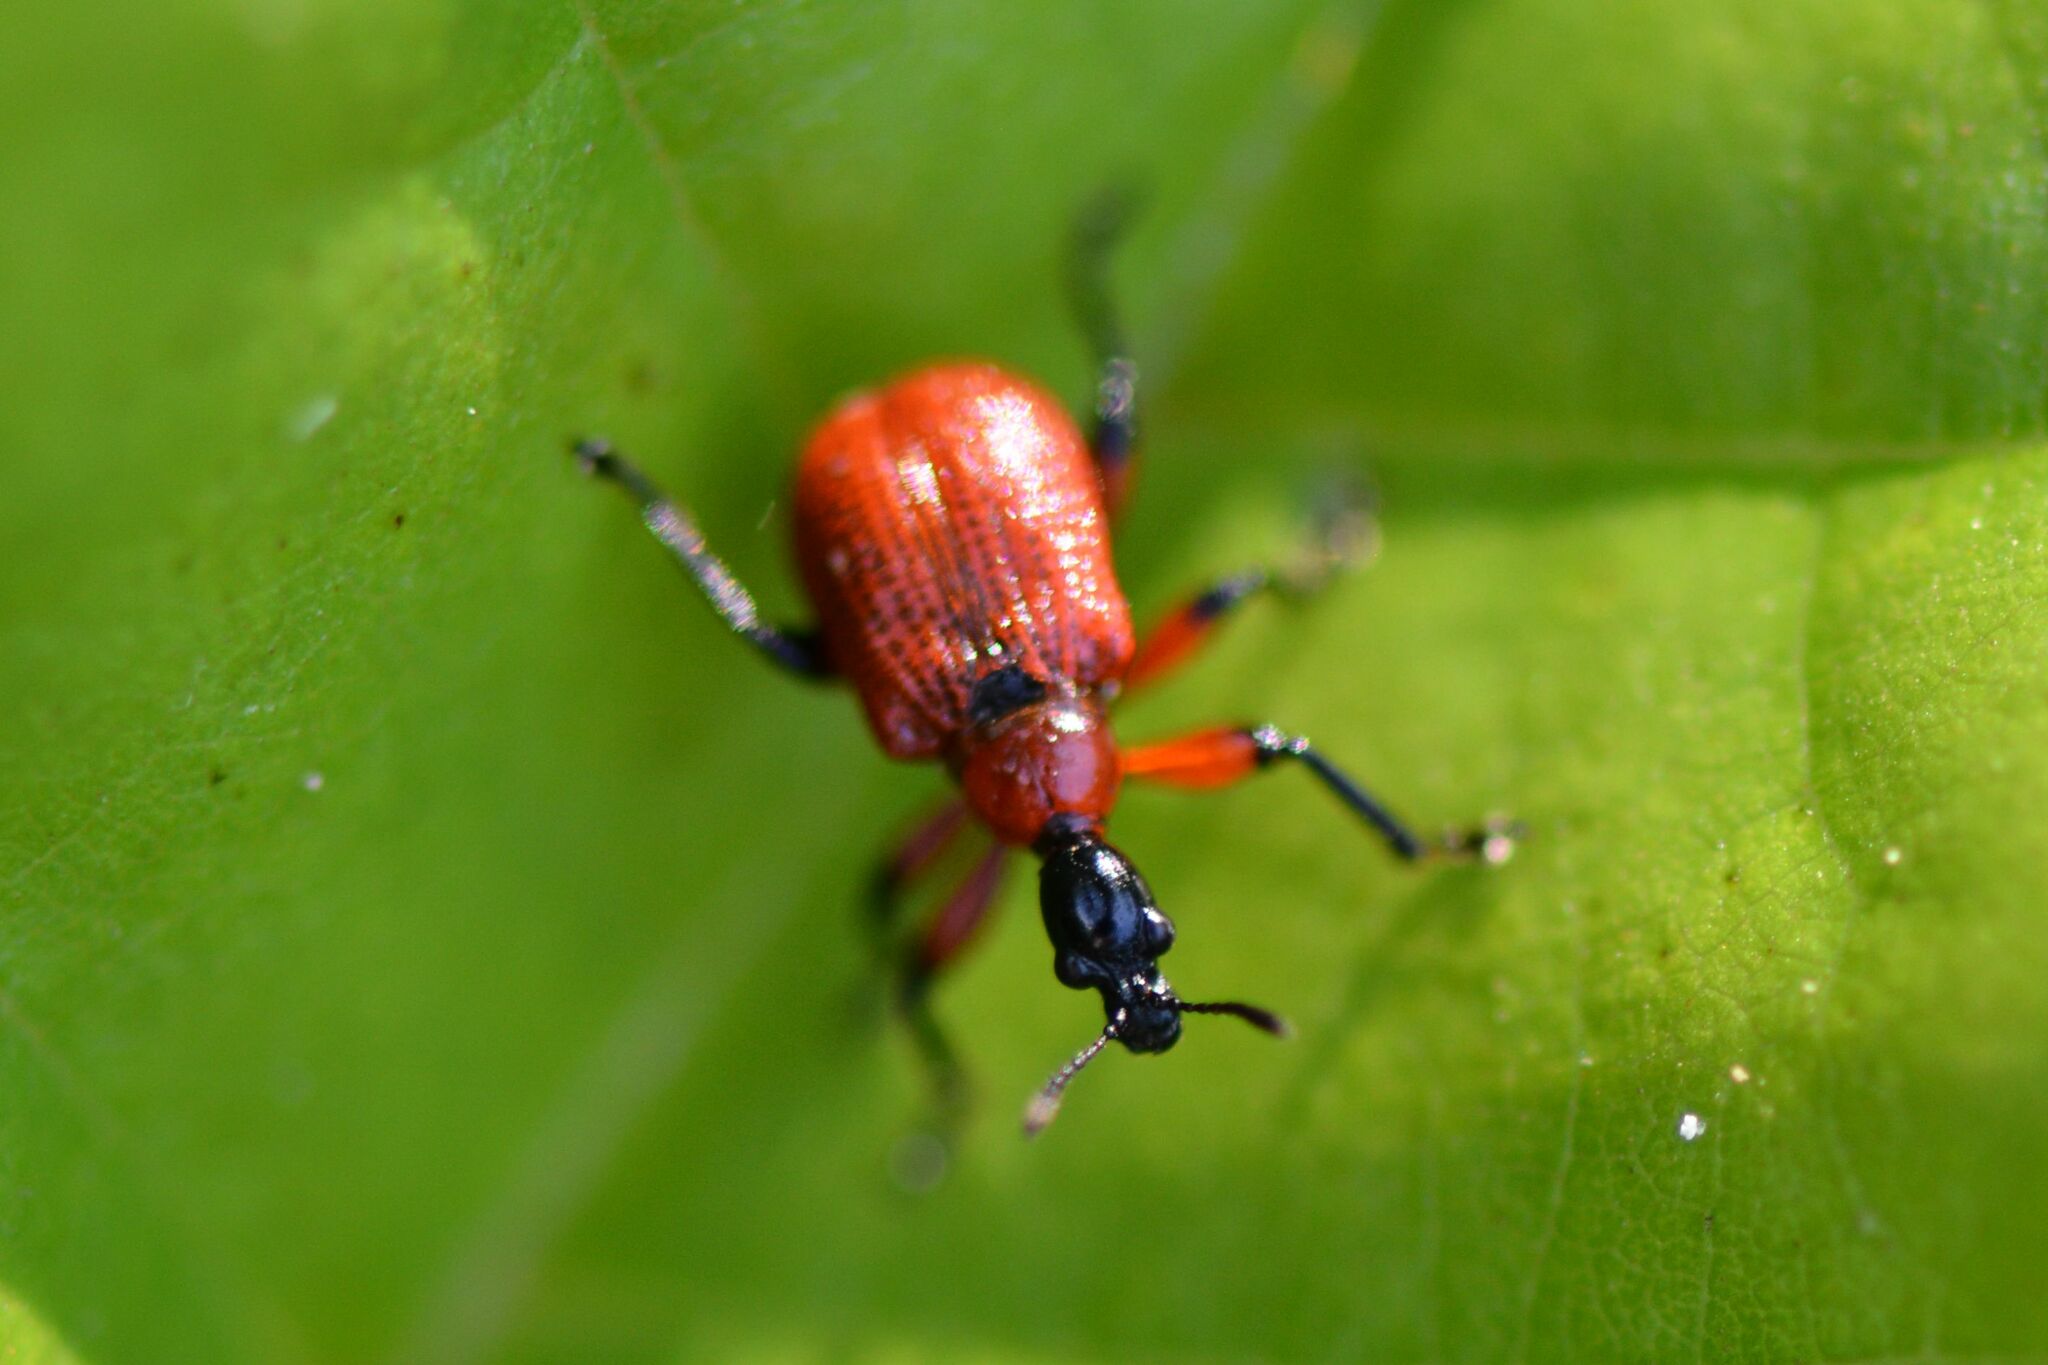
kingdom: Animalia
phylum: Arthropoda
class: Insecta
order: Coleoptera
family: Attelabidae
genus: Apoderus
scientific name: Apoderus coryli
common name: Hazel leaf roller
